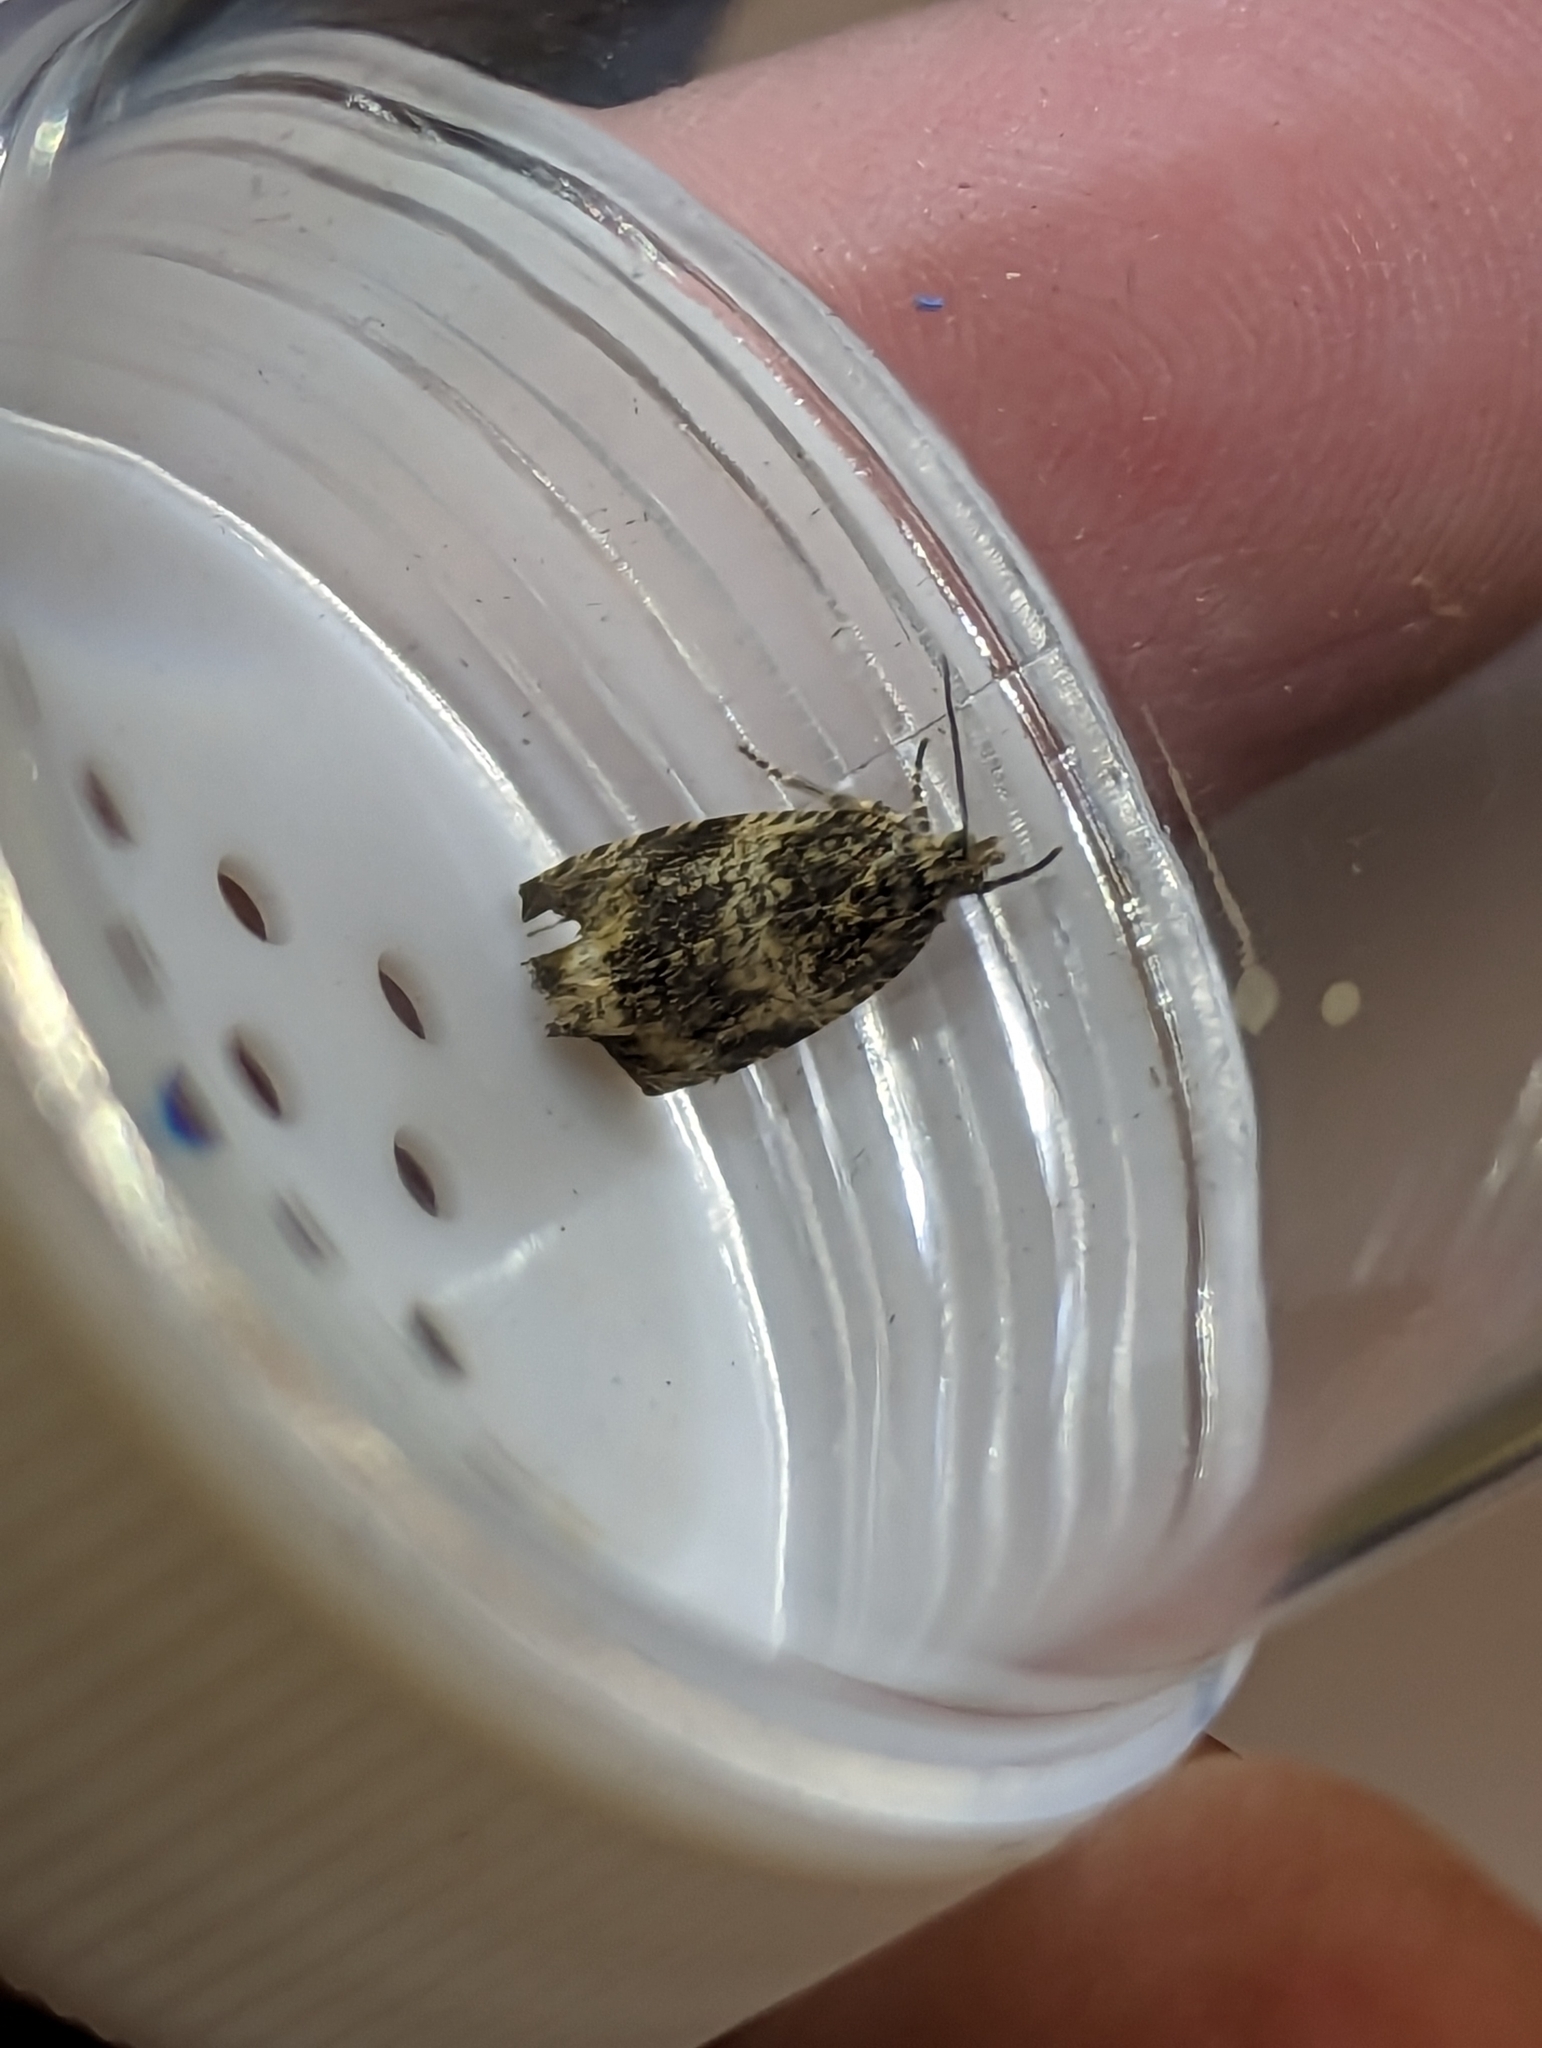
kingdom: Animalia
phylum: Arthropoda
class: Insecta
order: Lepidoptera
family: Tortricidae
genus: Syricoris
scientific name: Syricoris lacunana
